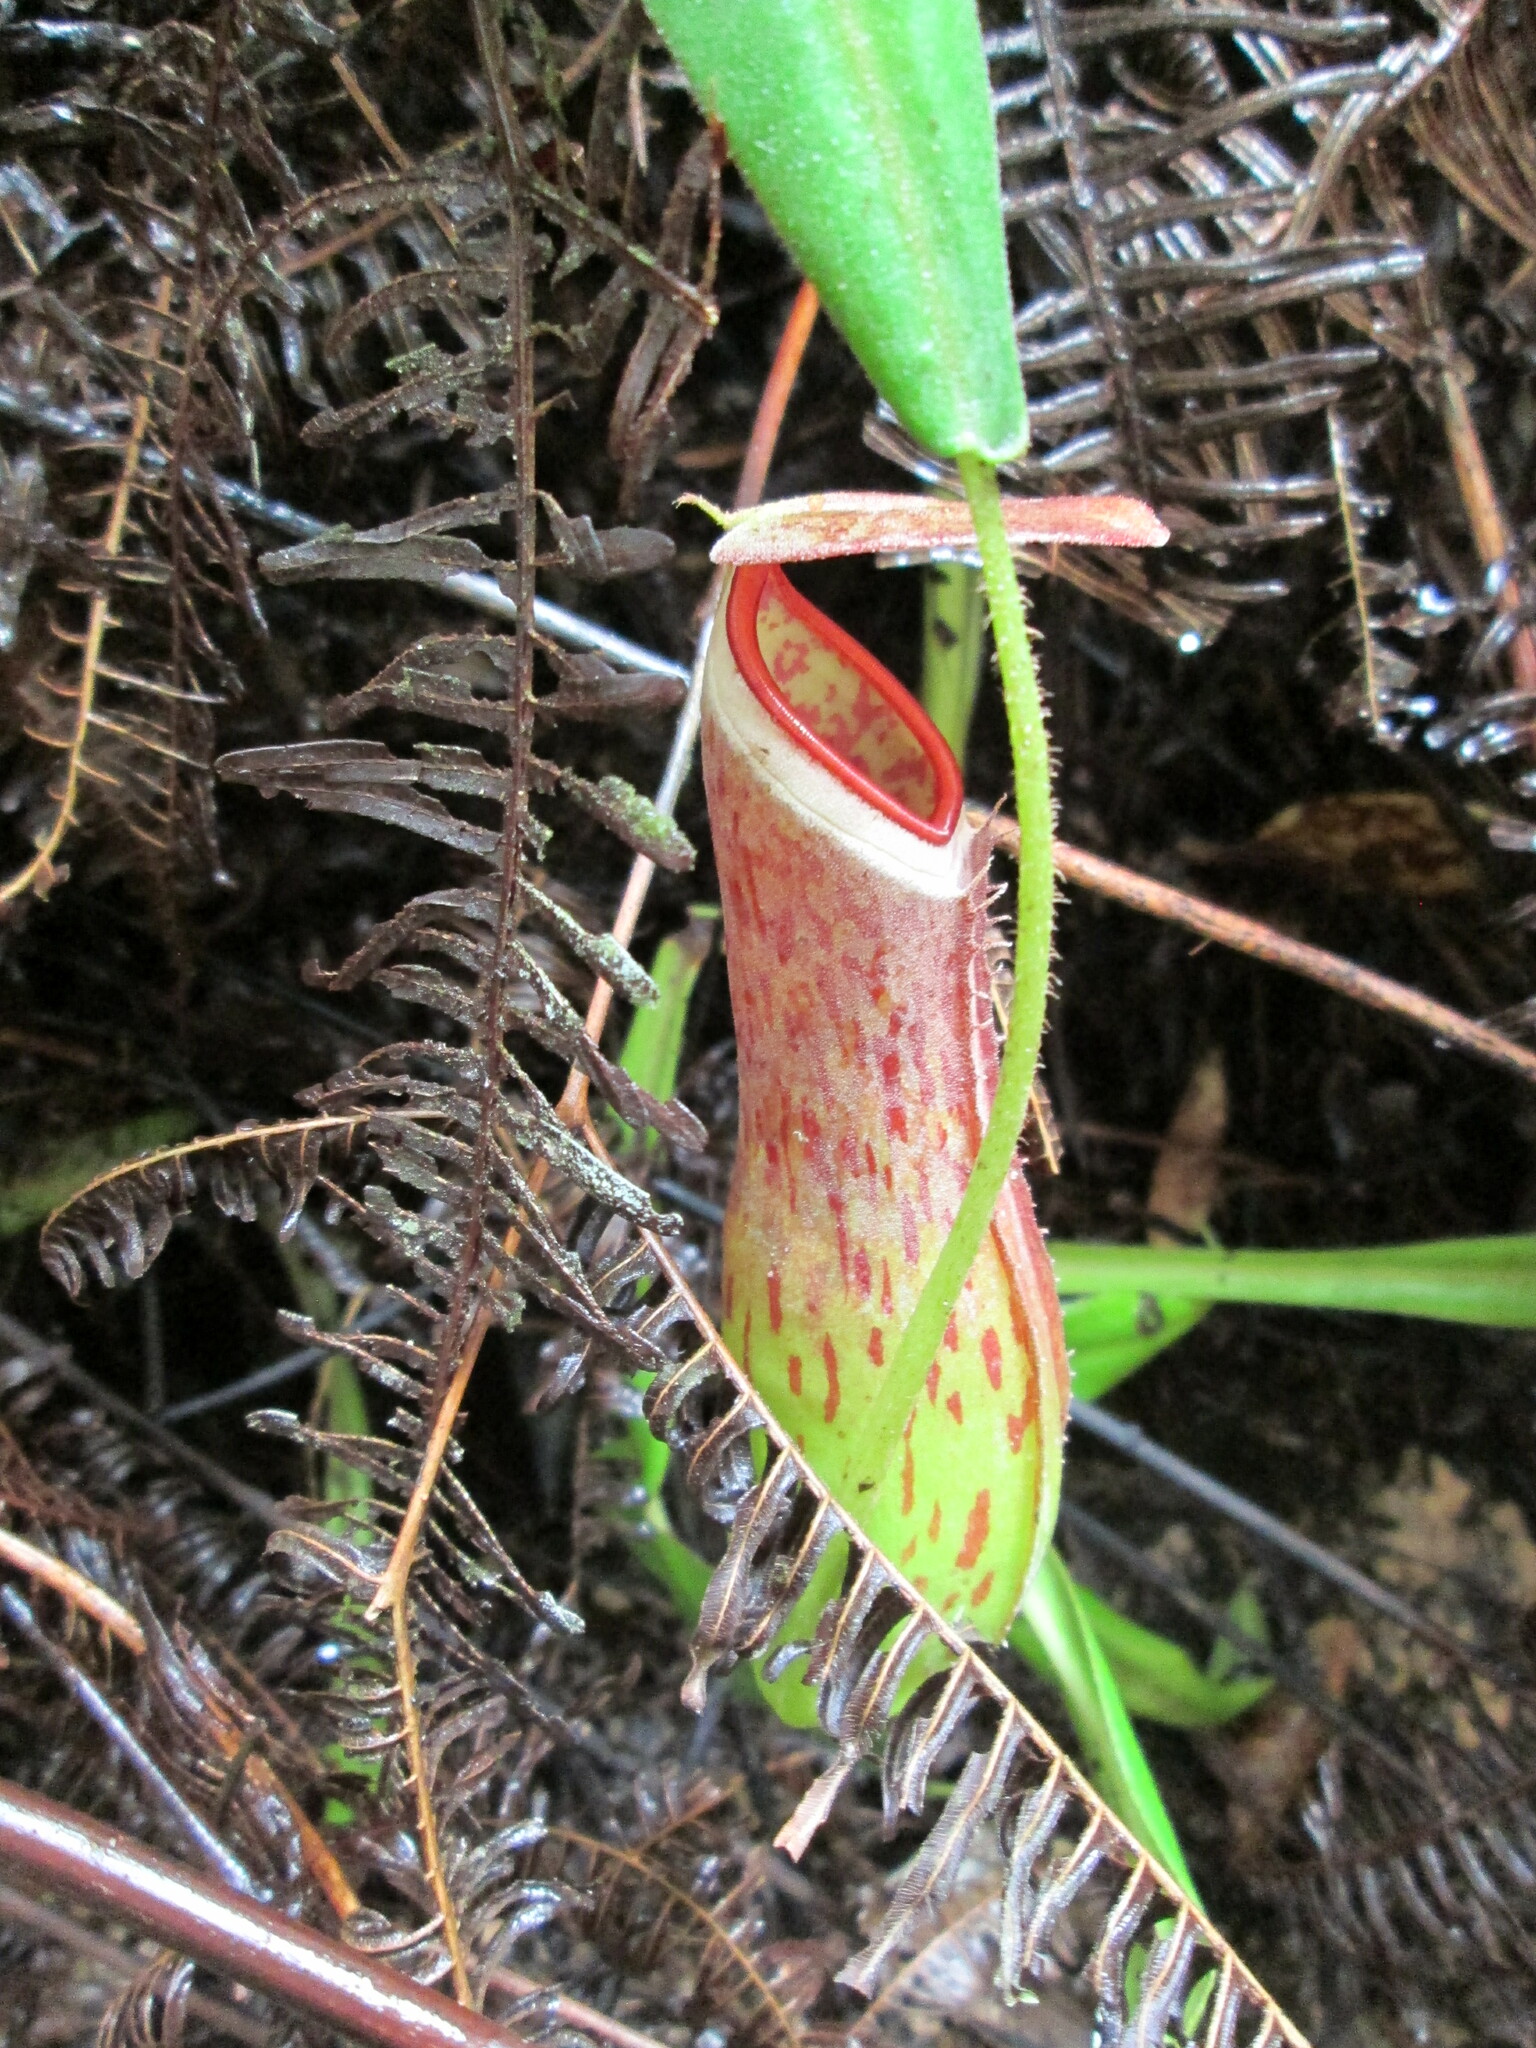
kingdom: Plantae
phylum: Tracheophyta
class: Magnoliopsida
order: Caryophyllales
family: Nepenthaceae
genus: Nepenthes
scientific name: Nepenthes albomarginata
